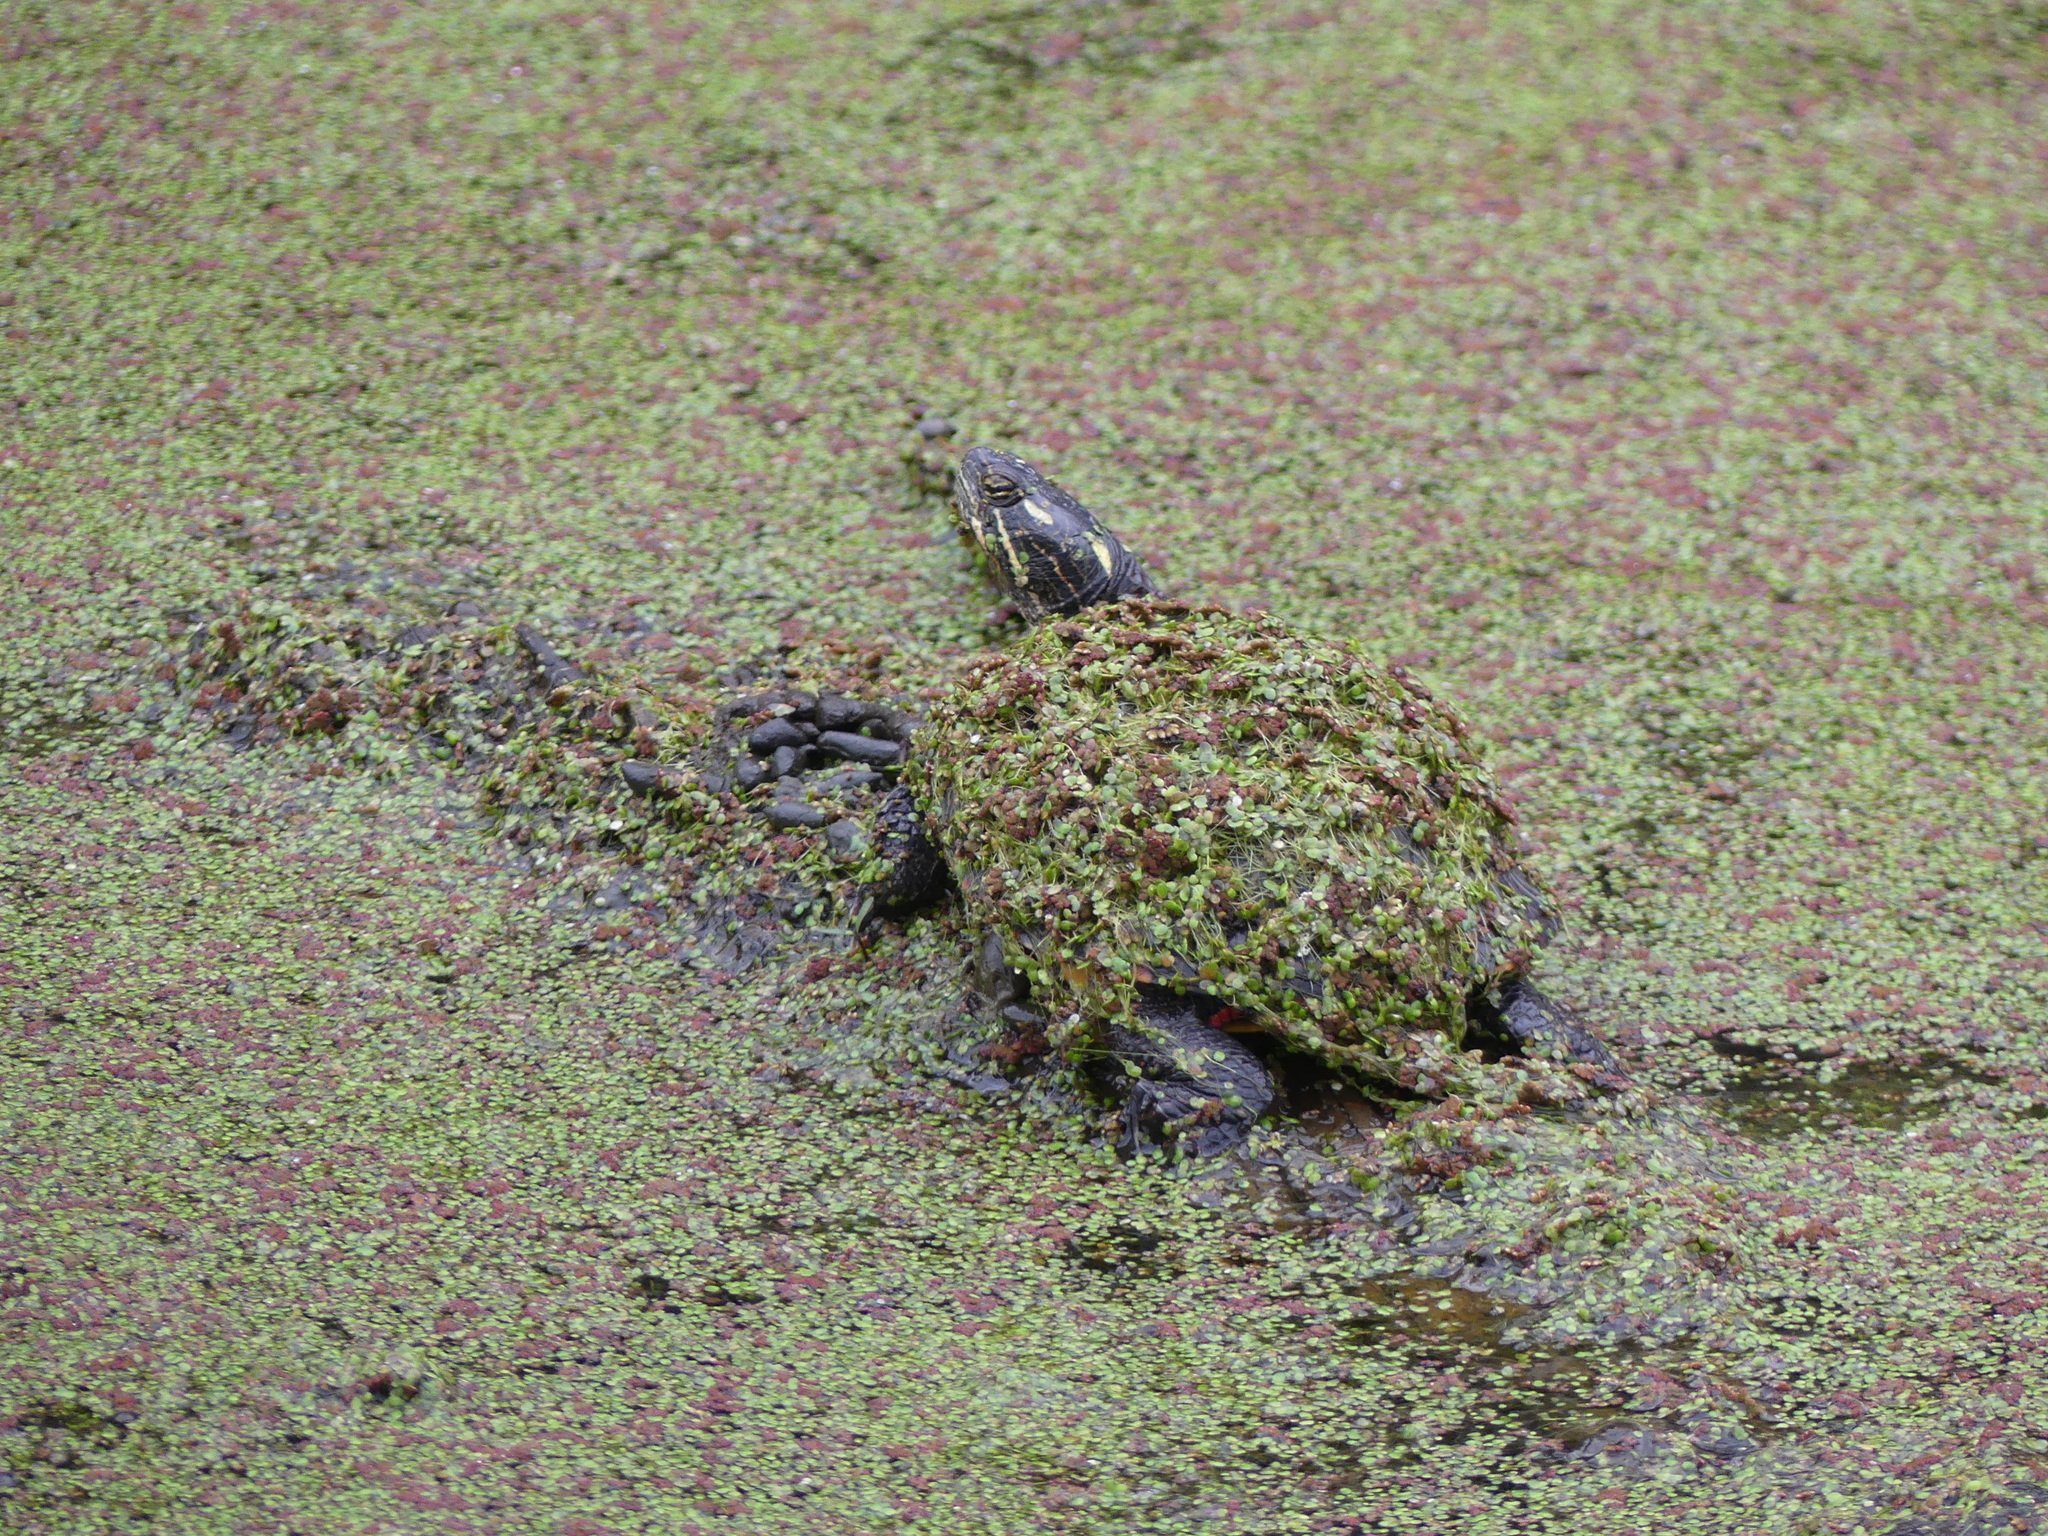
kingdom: Animalia
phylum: Chordata
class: Testudines
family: Emydidae
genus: Chrysemys
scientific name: Chrysemys picta
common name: Painted turtle
